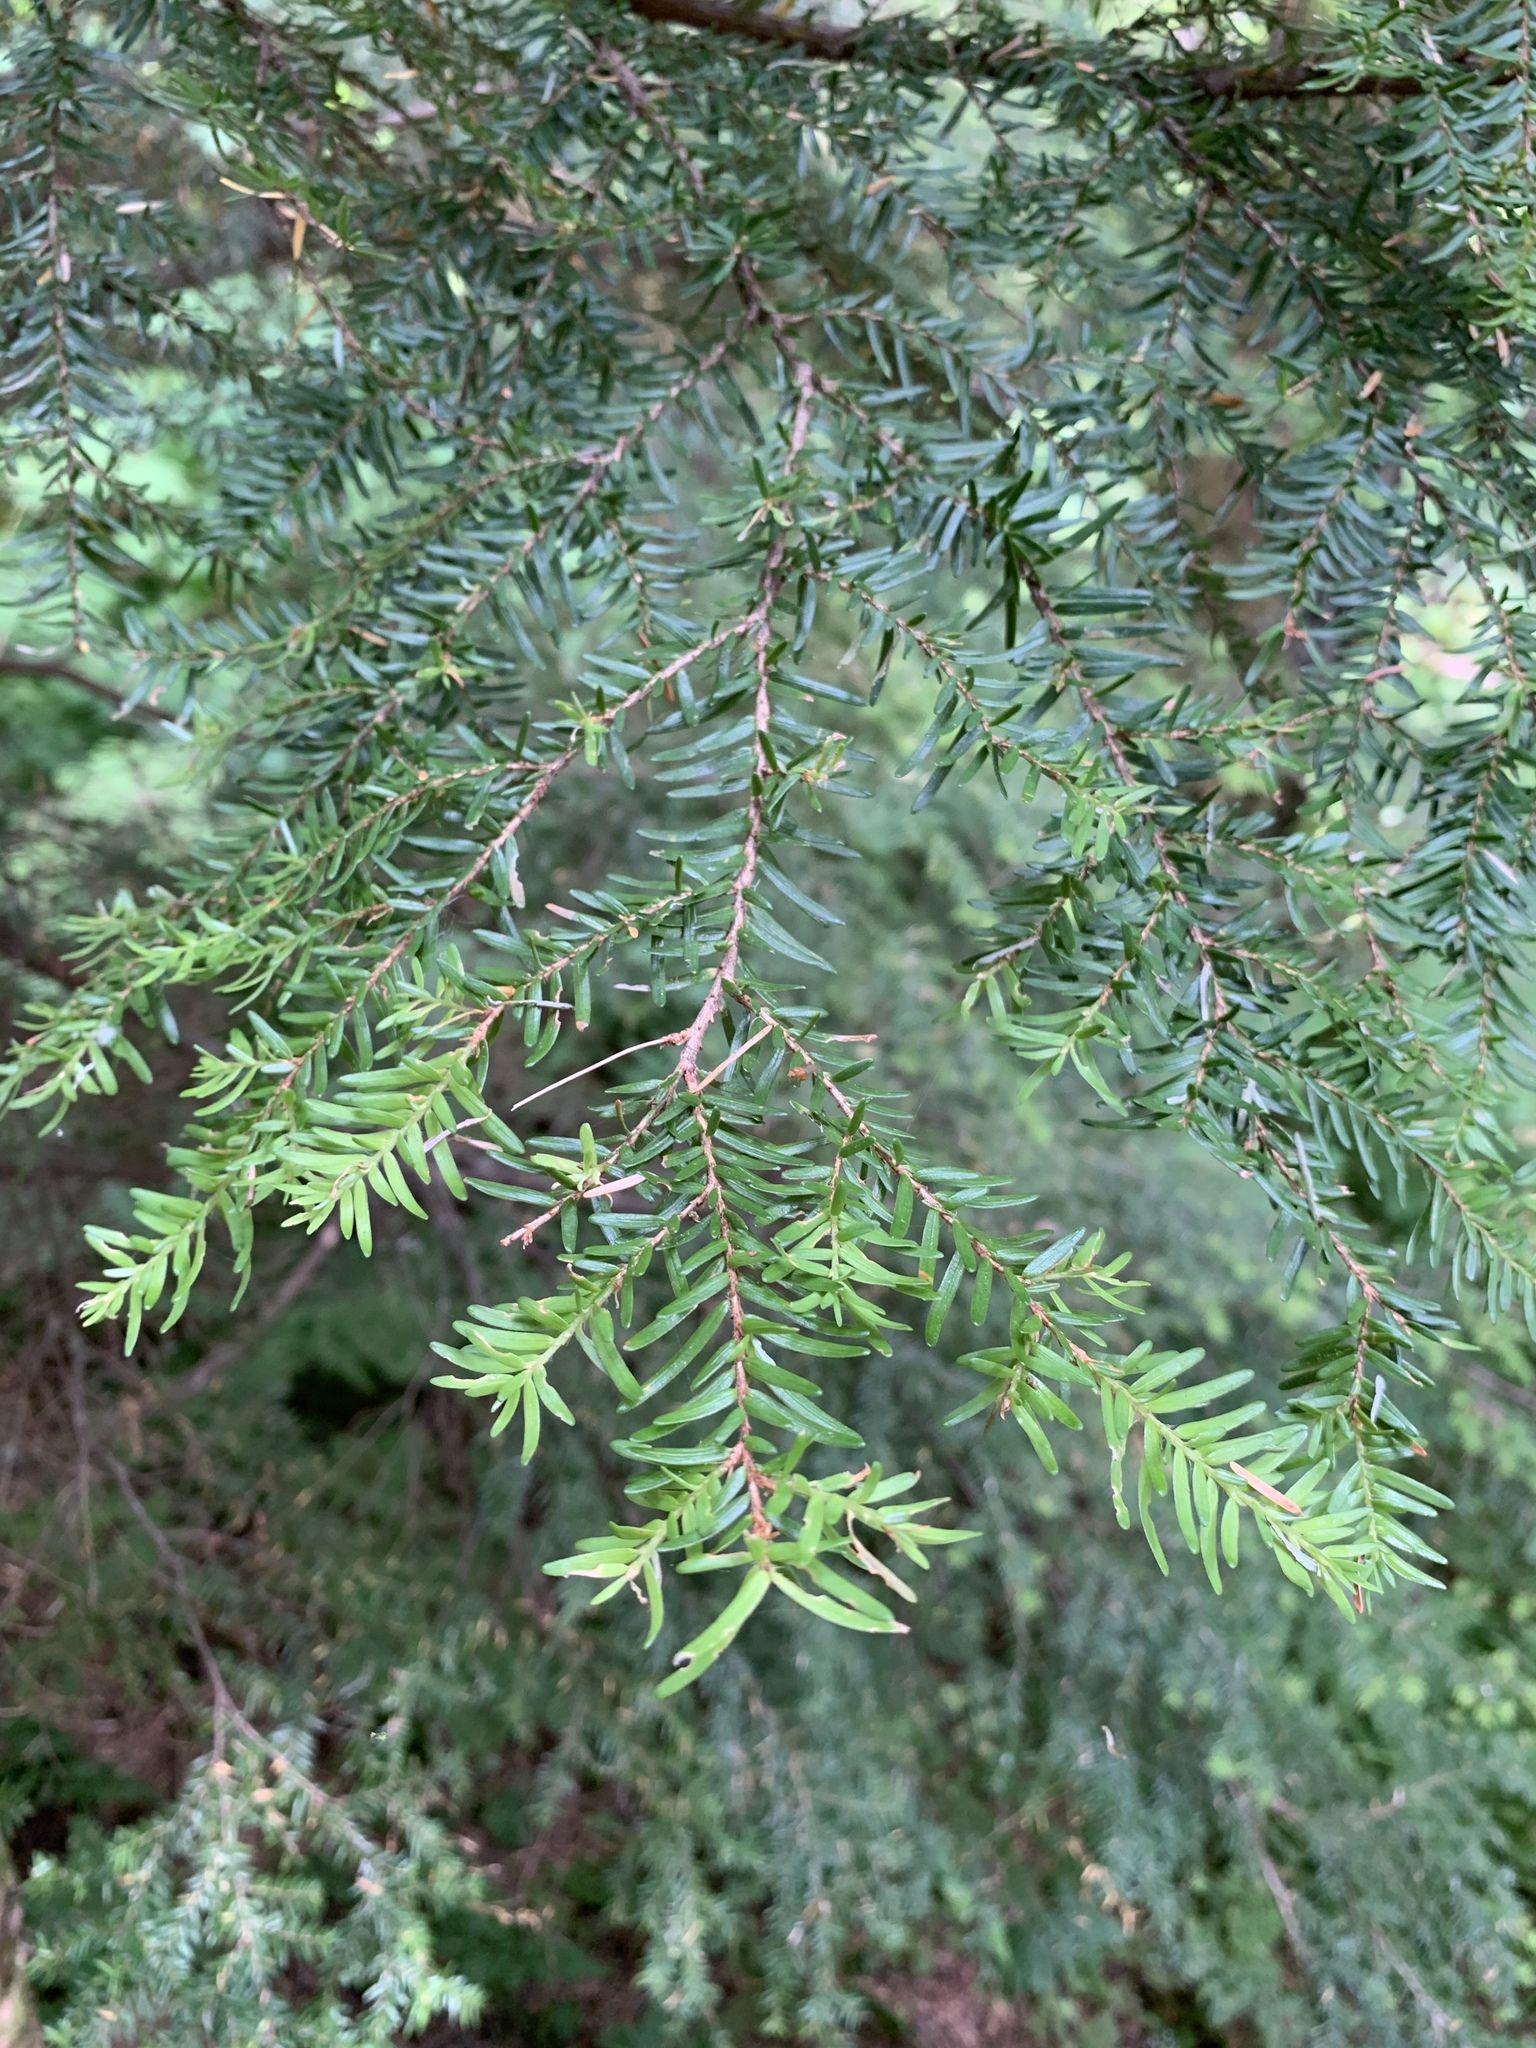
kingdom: Plantae
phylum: Tracheophyta
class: Pinopsida
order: Pinales
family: Pinaceae
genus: Tsuga
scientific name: Tsuga heterophylla
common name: Western hemlock
